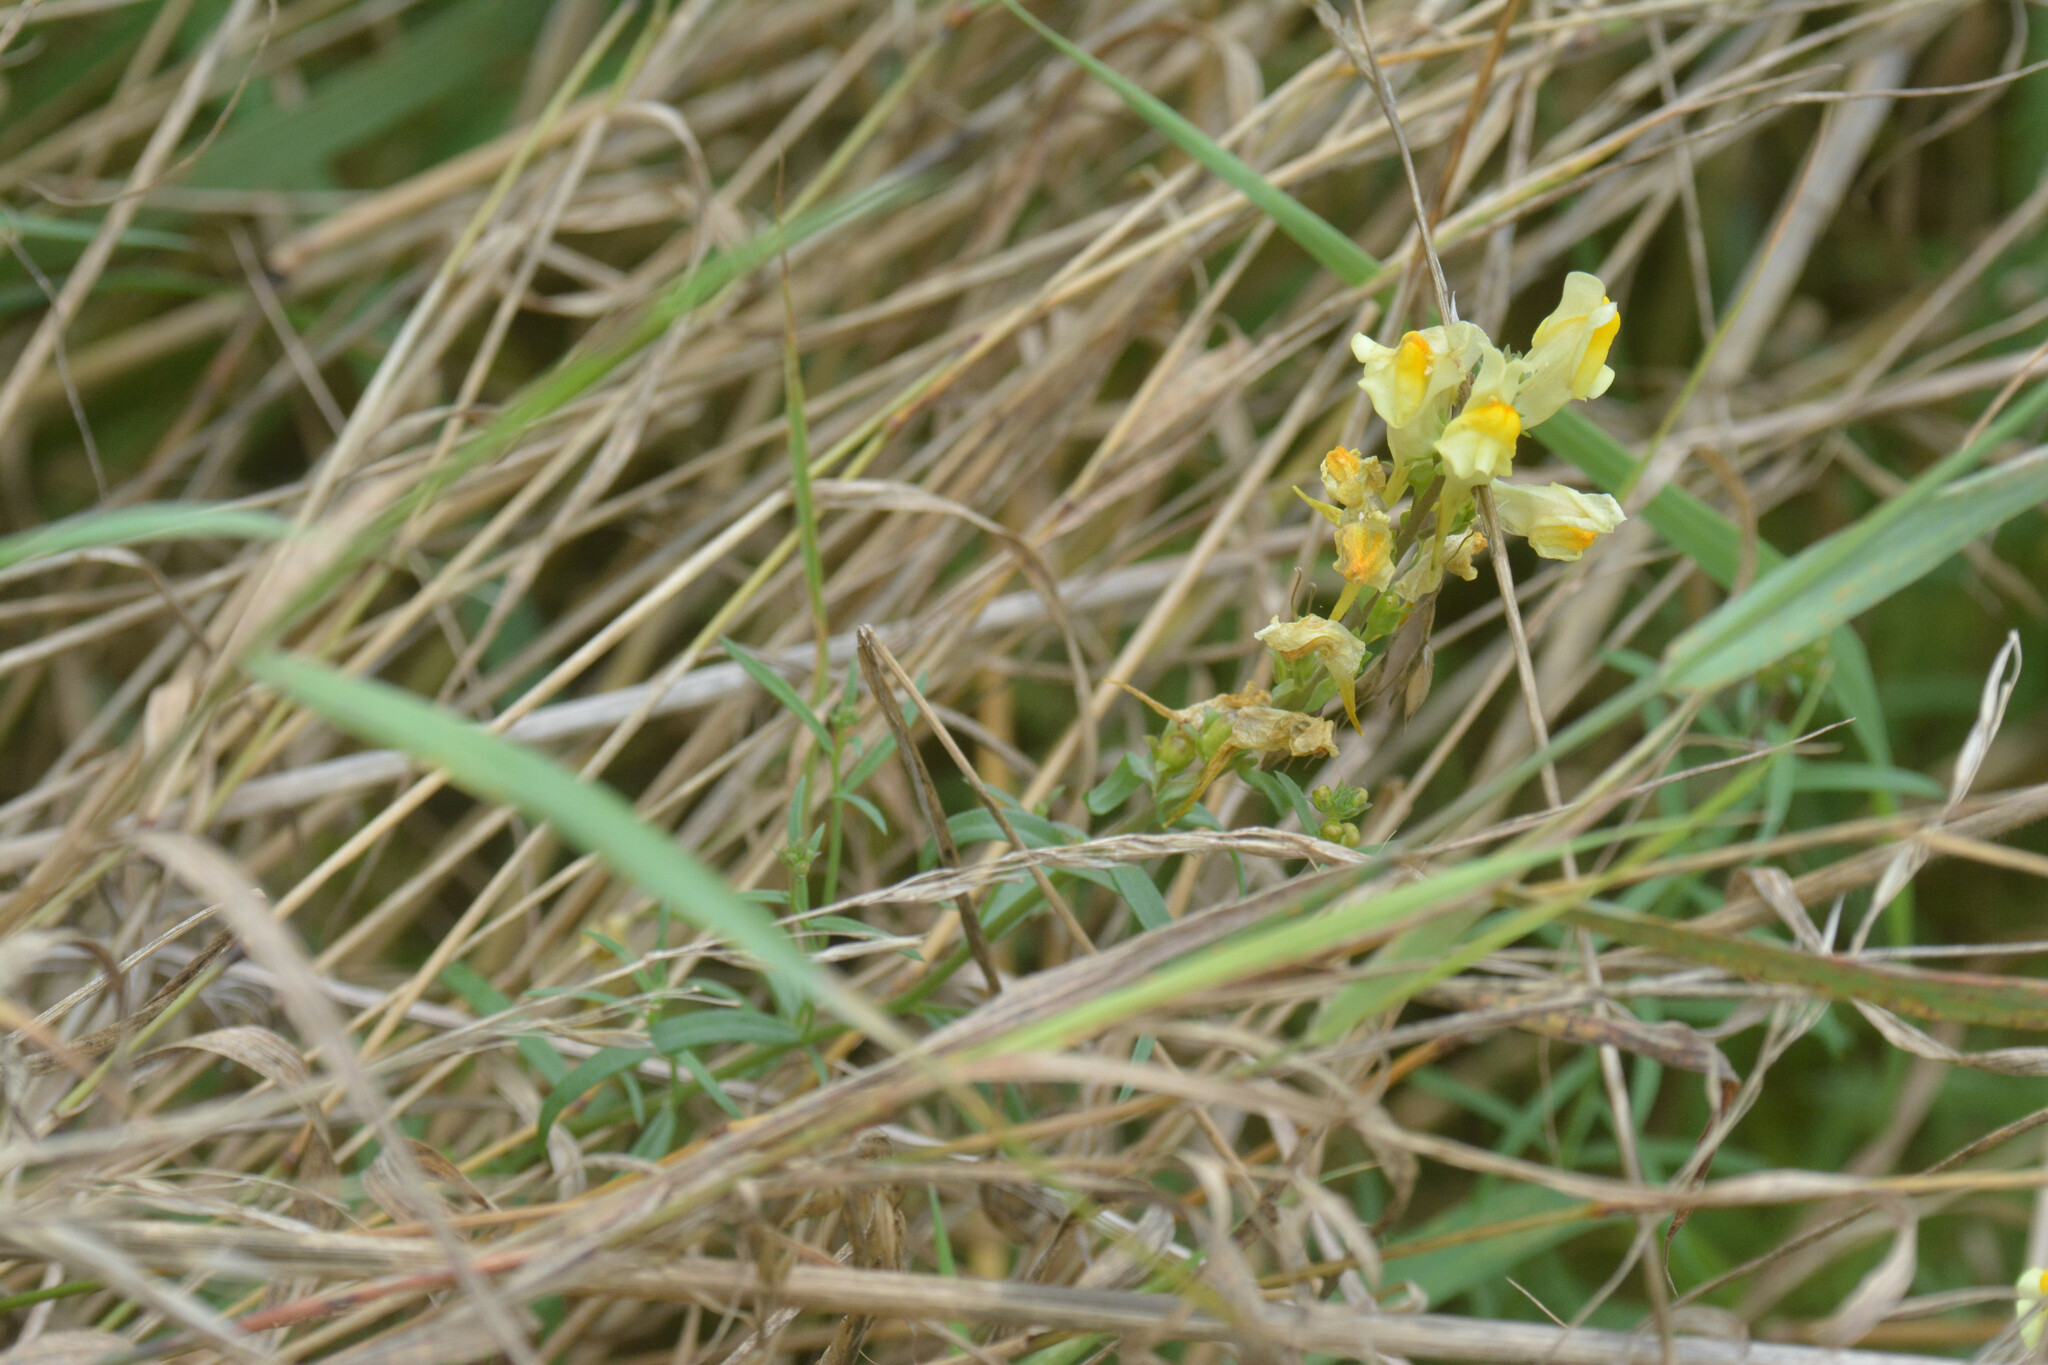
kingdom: Plantae
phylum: Tracheophyta
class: Magnoliopsida
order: Lamiales
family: Plantaginaceae
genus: Linaria
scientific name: Linaria vulgaris
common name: Butter and eggs
